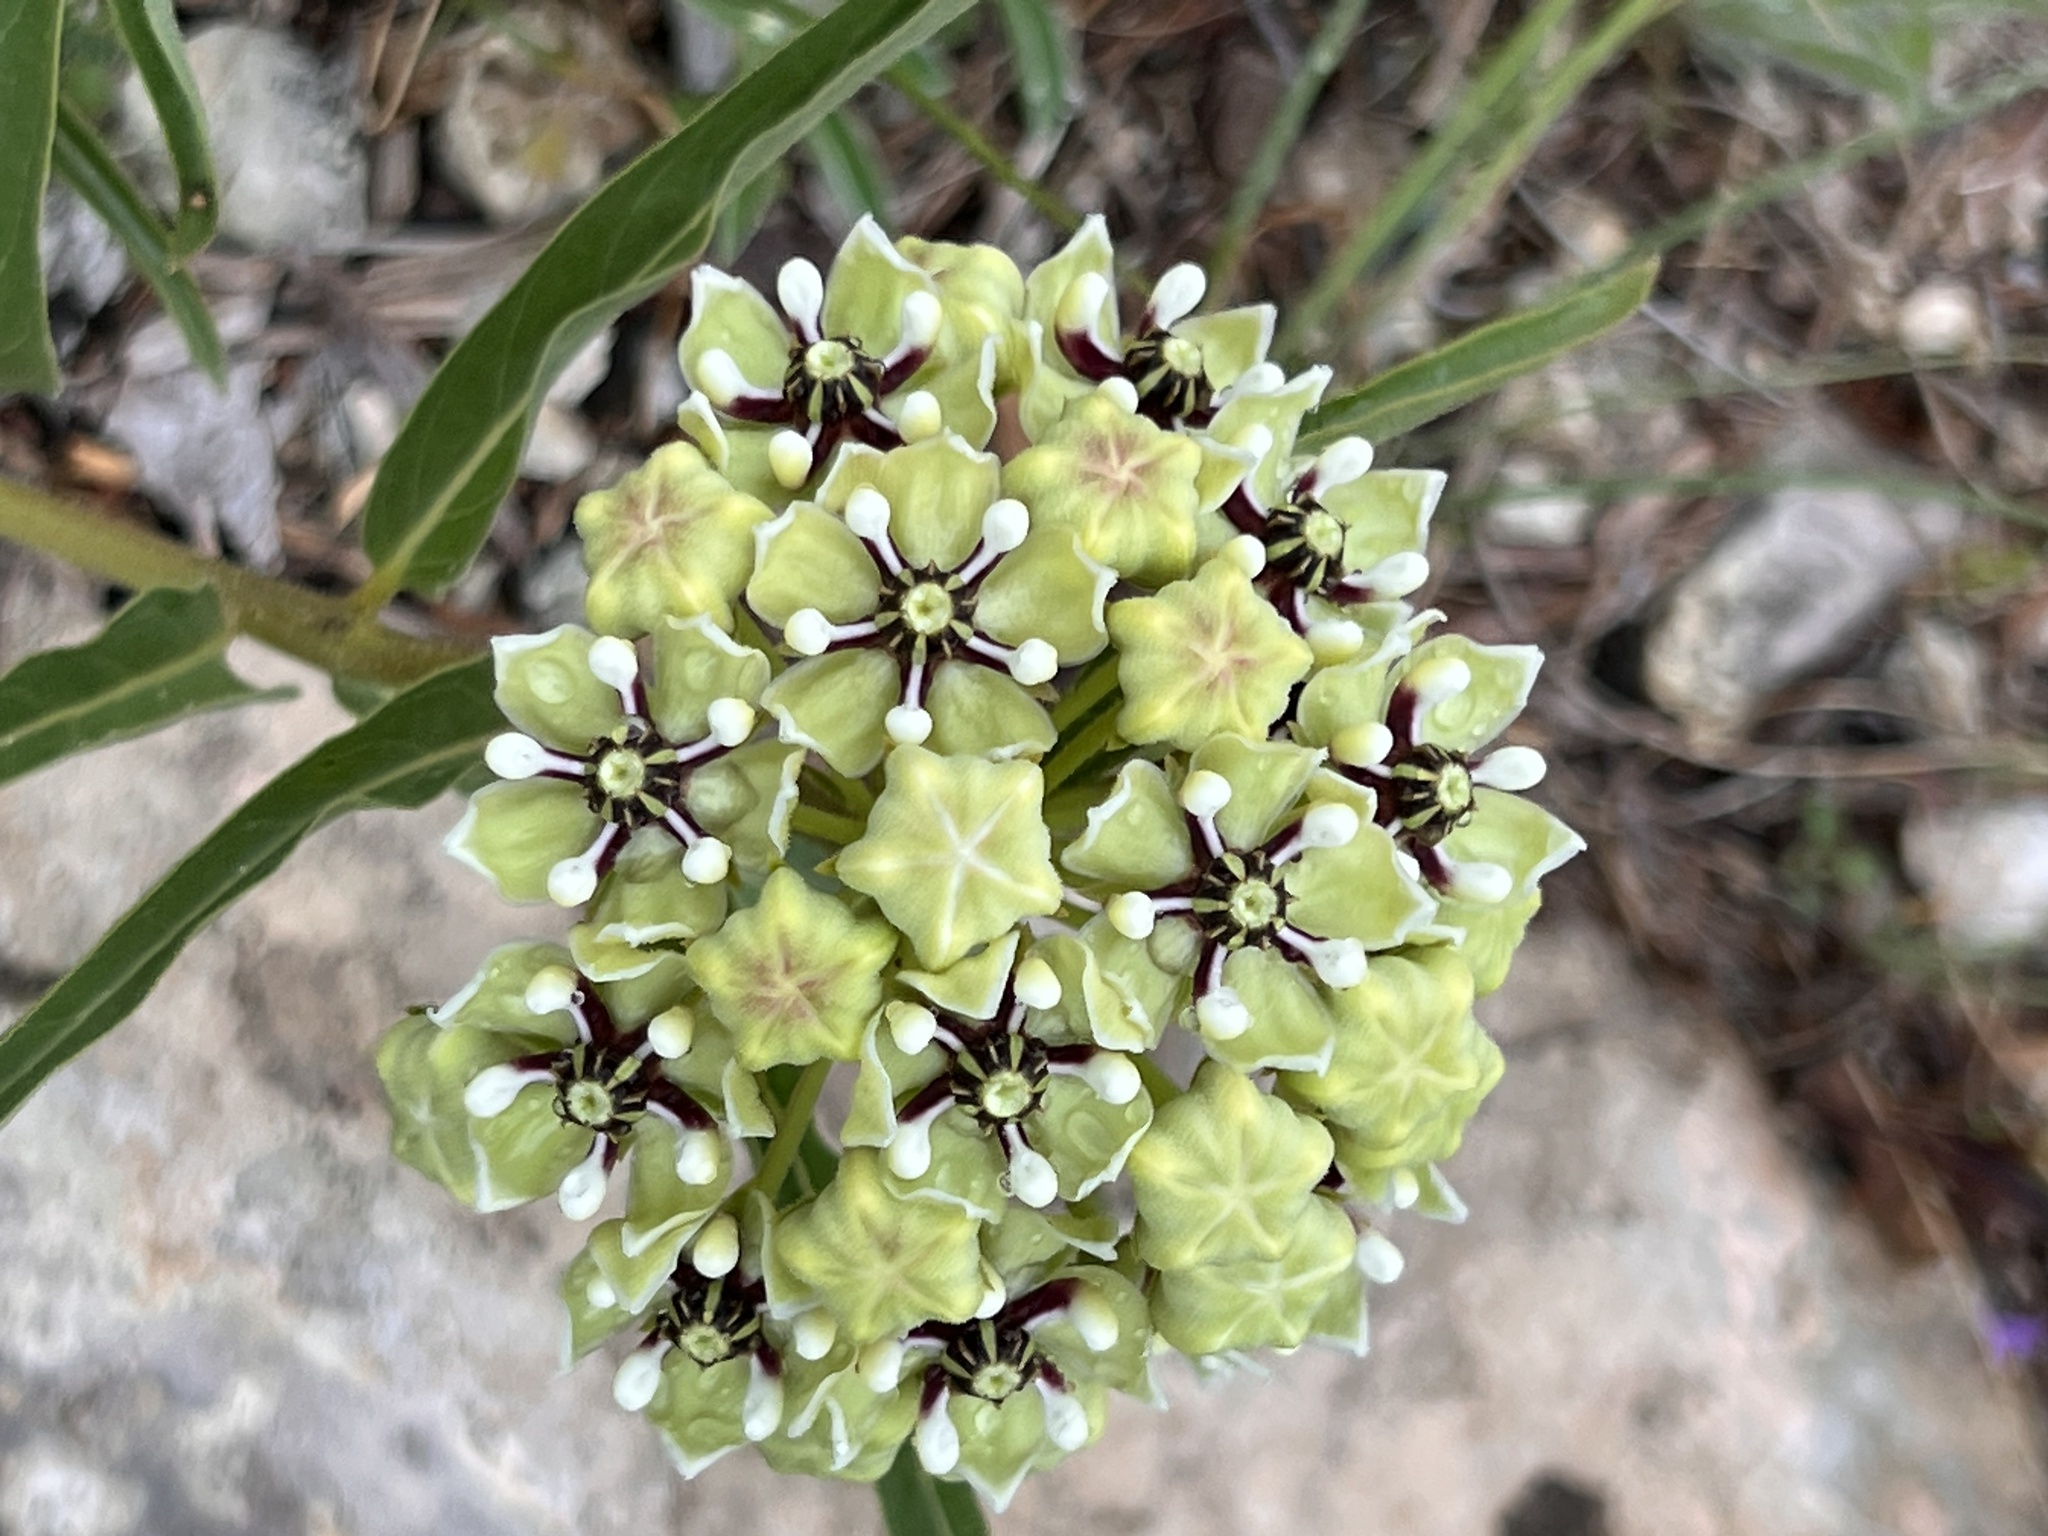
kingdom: Plantae
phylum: Tracheophyta
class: Magnoliopsida
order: Gentianales
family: Apocynaceae
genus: Asclepias
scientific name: Asclepias asperula
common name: Antelope horns
